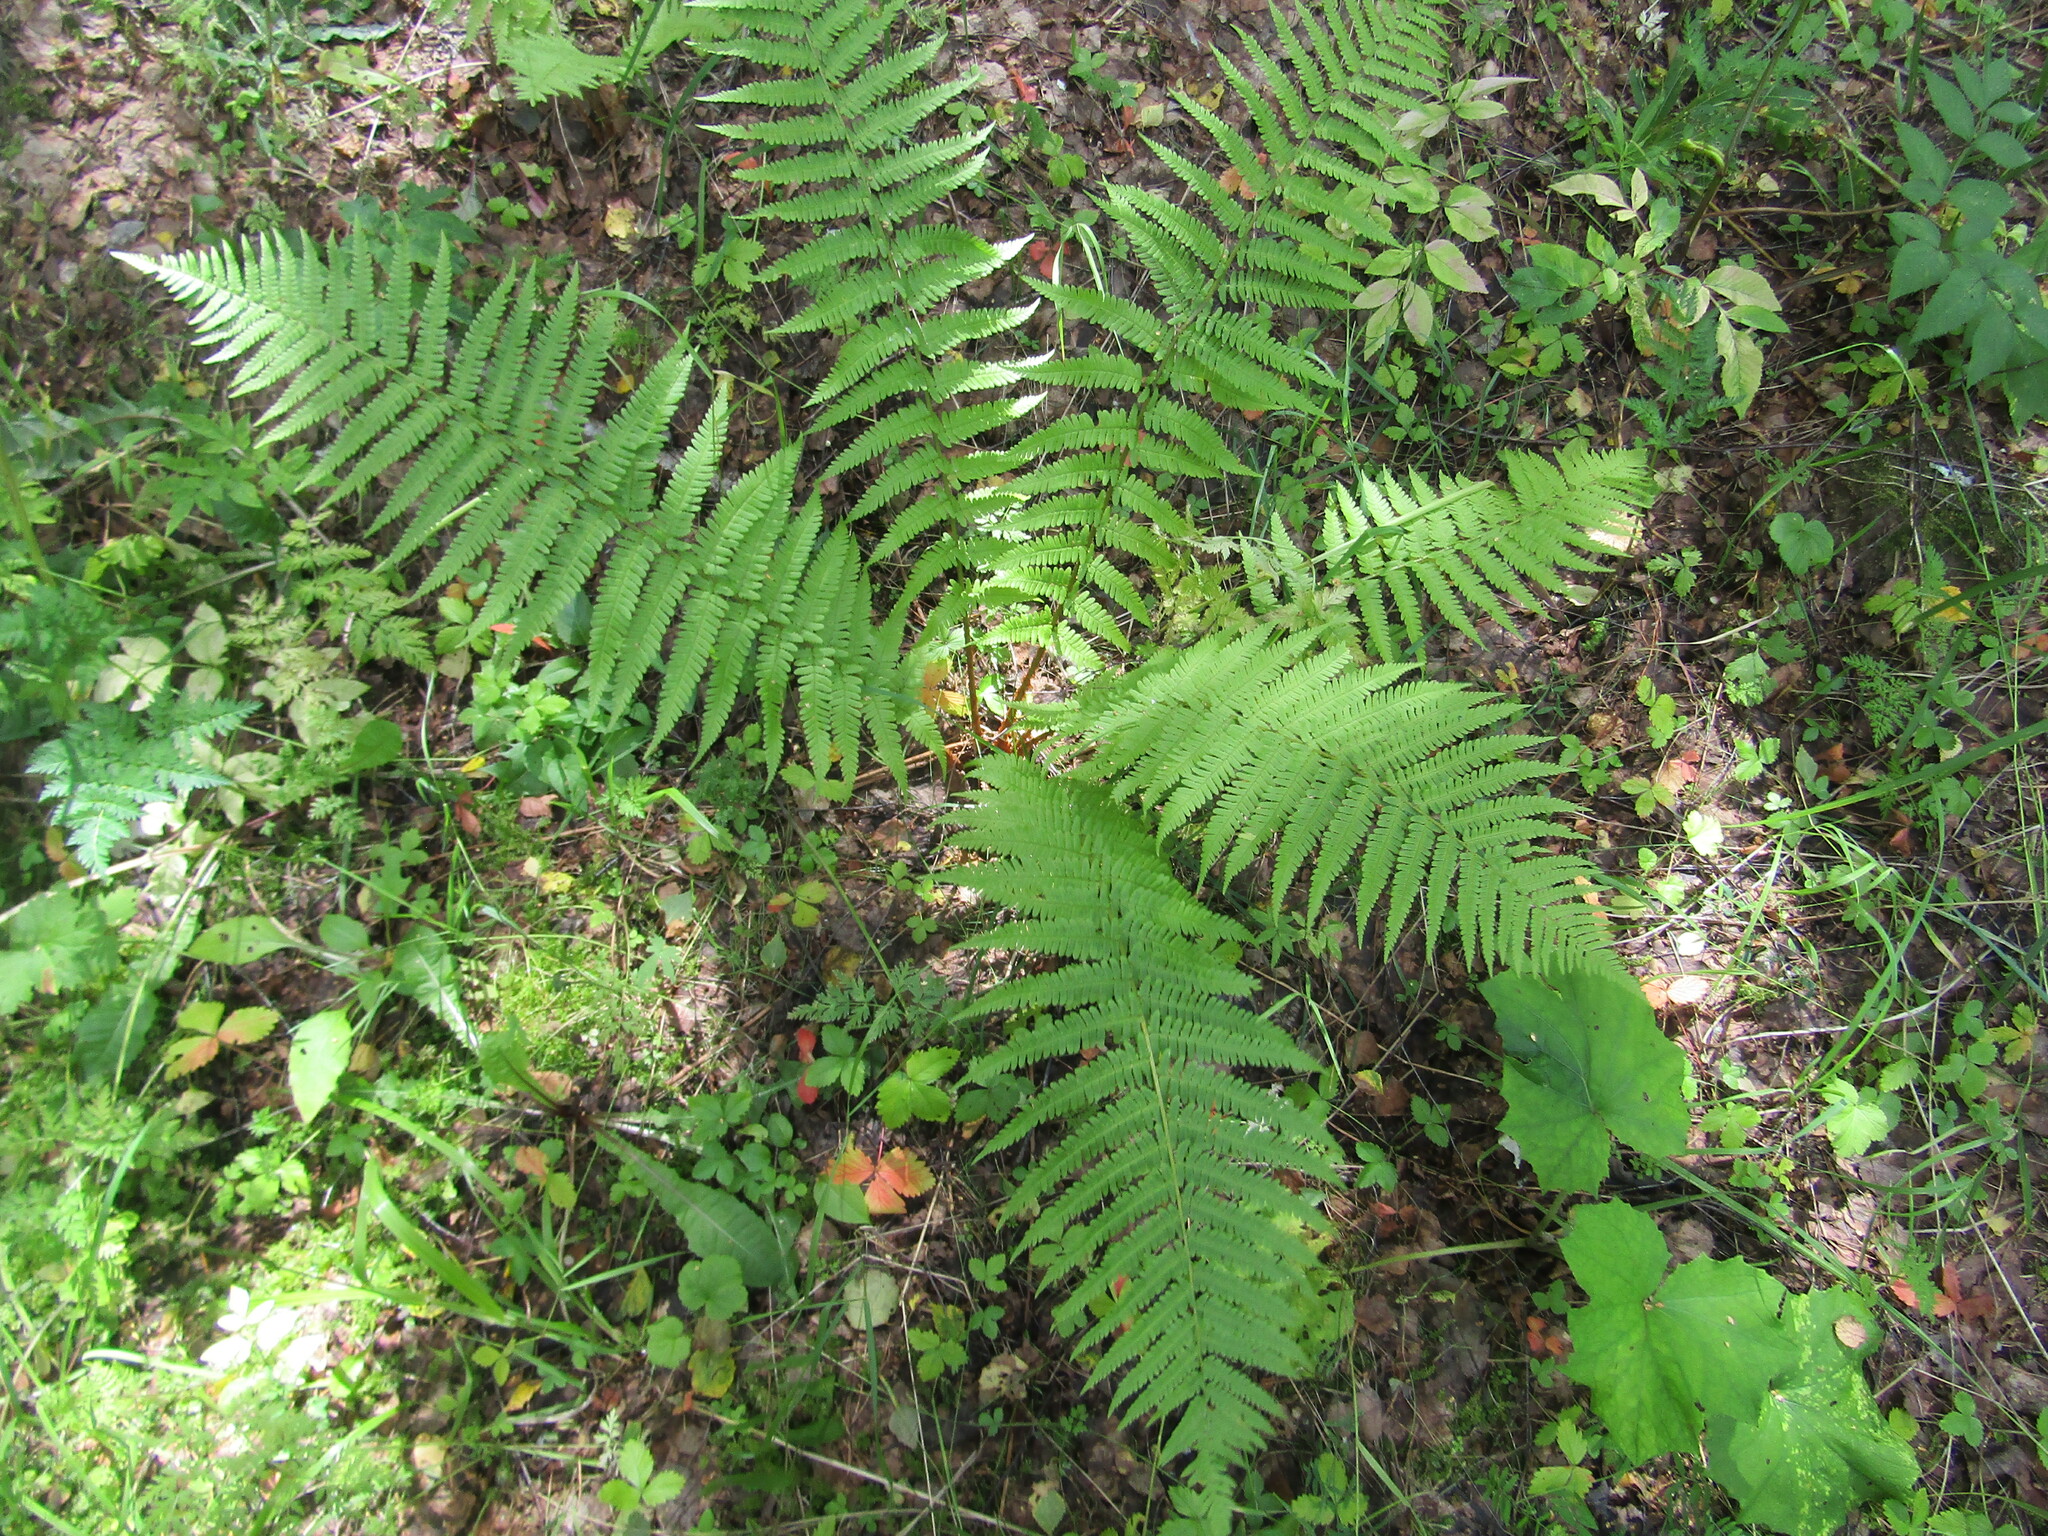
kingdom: Plantae
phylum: Tracheophyta
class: Polypodiopsida
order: Polypodiales
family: Dryopteridaceae
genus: Dryopteris
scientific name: Dryopteris filix-mas
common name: Male fern
